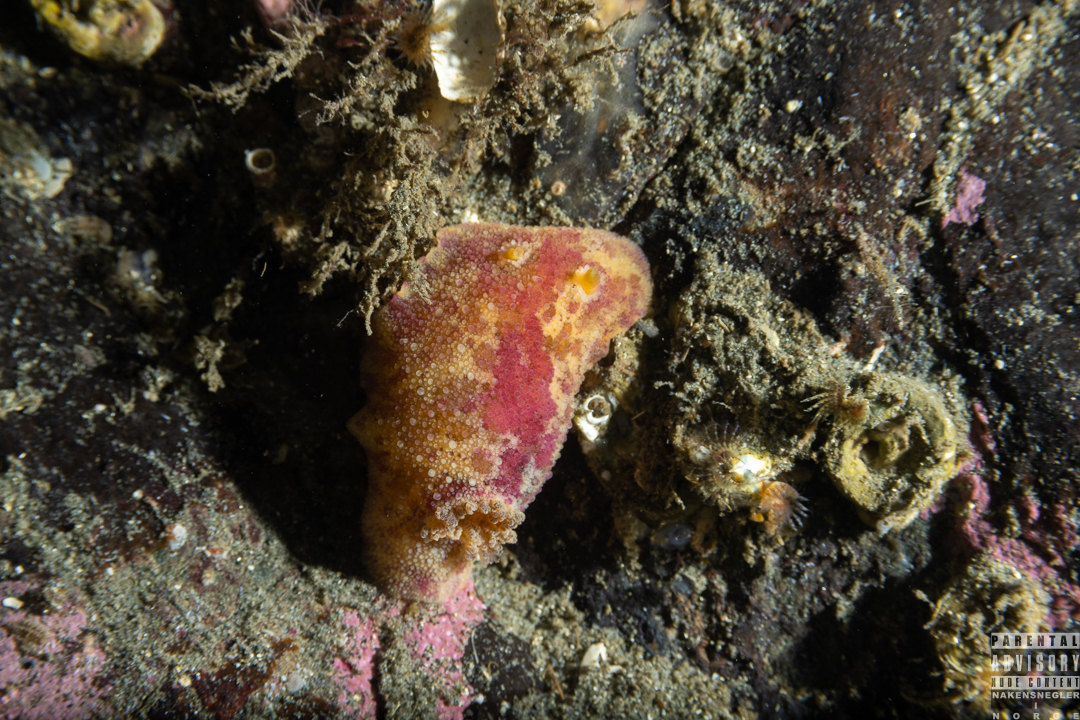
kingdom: Animalia
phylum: Mollusca
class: Gastropoda
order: Nudibranchia
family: Dorididae
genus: Doris
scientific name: Doris pseudoargus
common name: Sea lemon
